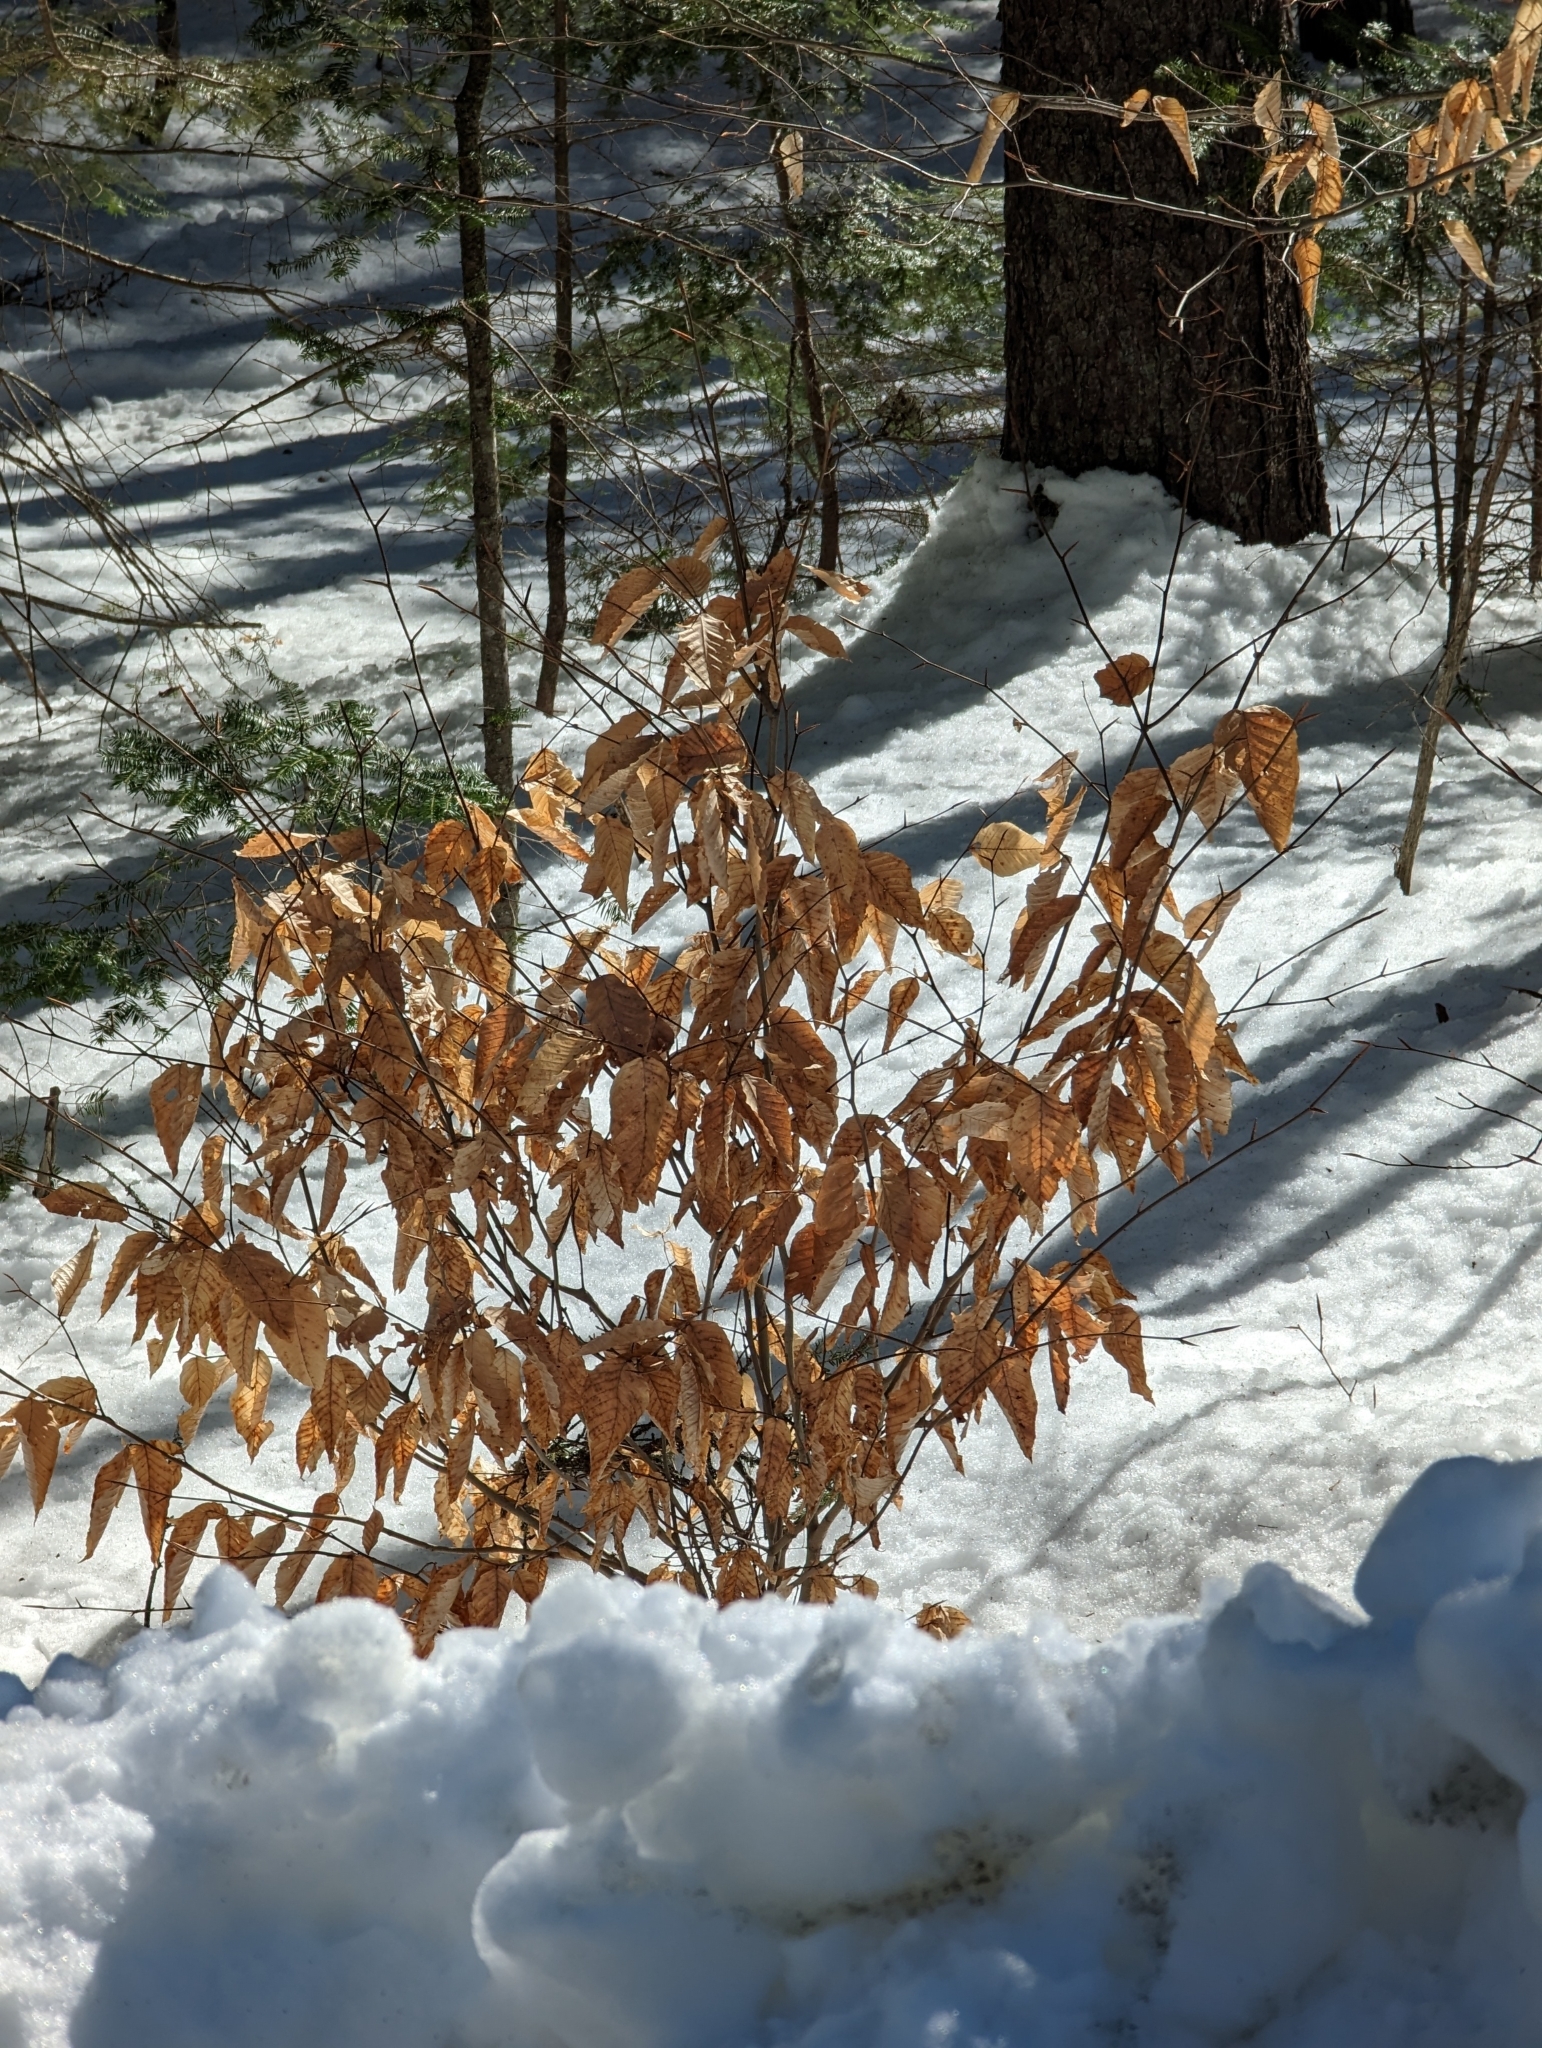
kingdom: Plantae
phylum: Tracheophyta
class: Magnoliopsida
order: Fagales
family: Fagaceae
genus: Fagus
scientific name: Fagus grandifolia
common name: American beech
